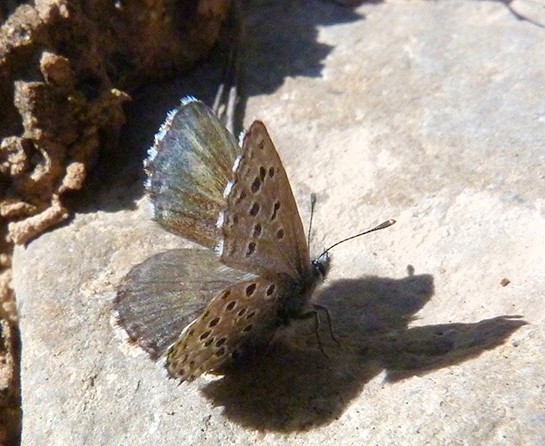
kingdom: Animalia
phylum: Arthropoda
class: Insecta
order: Lepidoptera
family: Lycaenidae
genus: Pseudophilotes
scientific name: Pseudophilotes baton
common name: Baton blue
